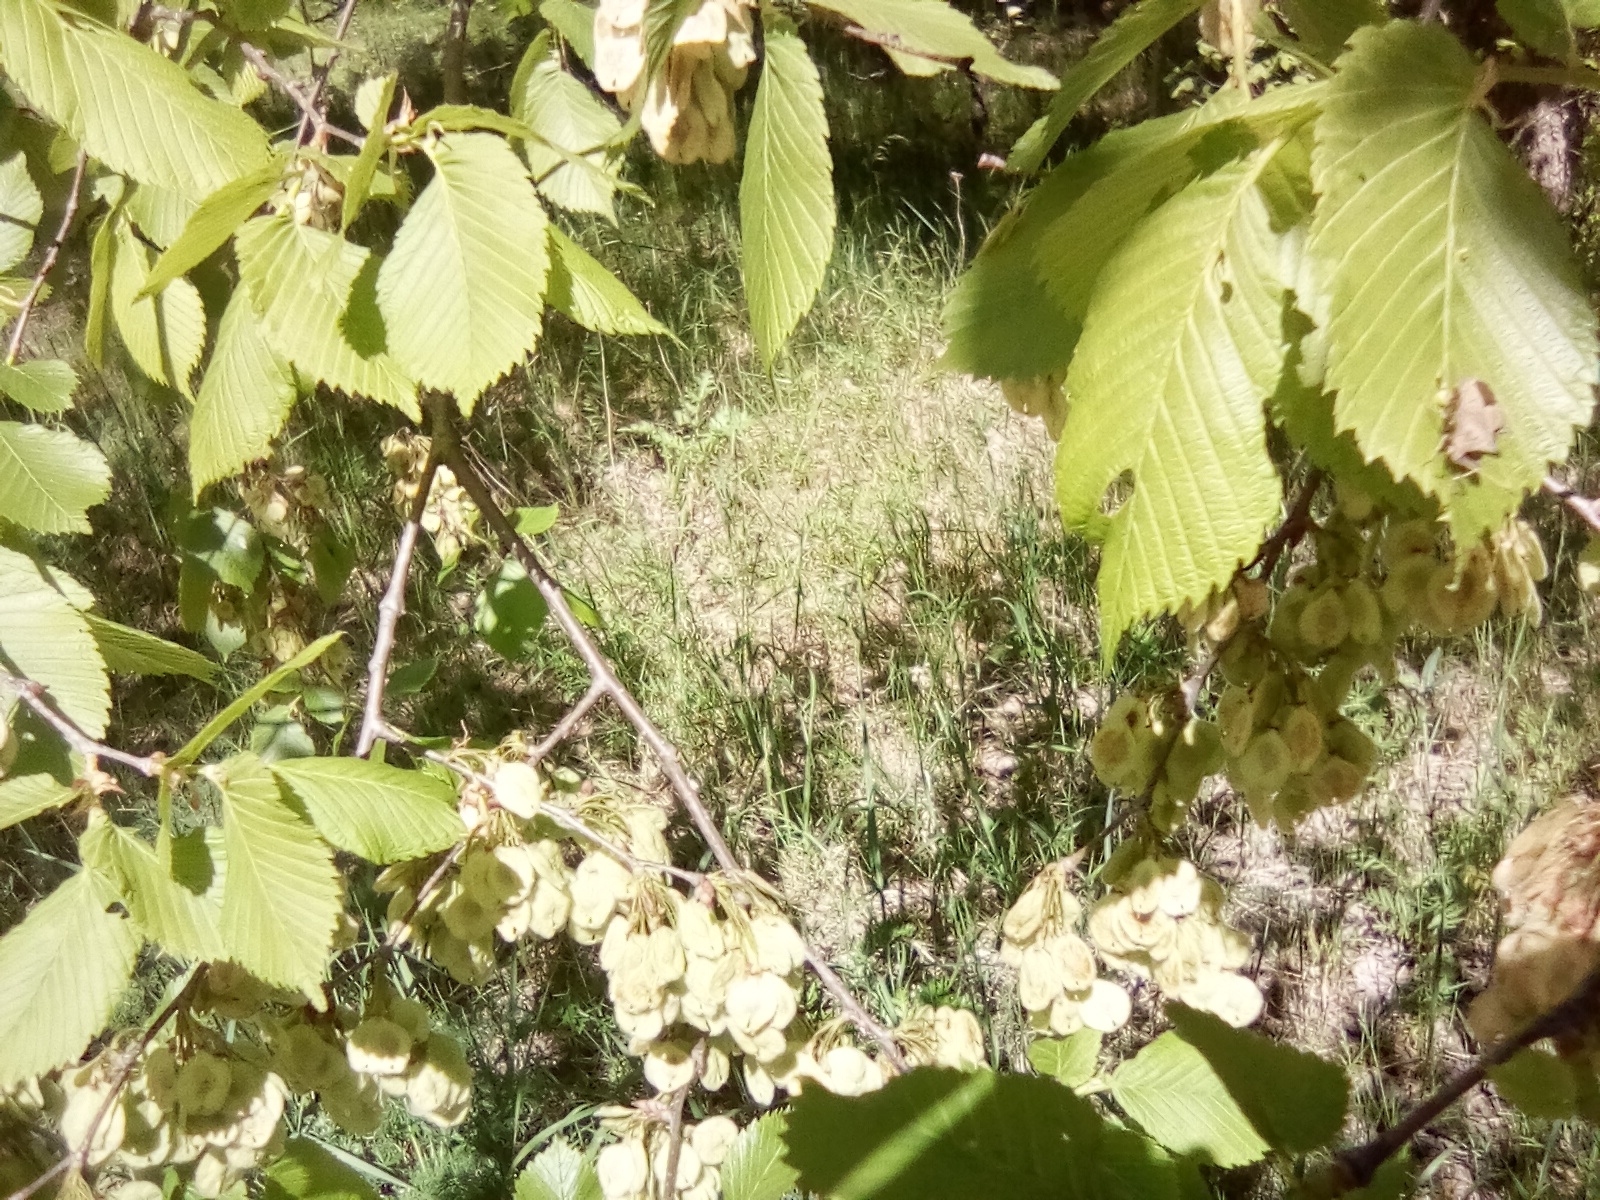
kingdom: Animalia
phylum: Arthropoda
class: Insecta
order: Hemiptera
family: Coreidae
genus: Coreus
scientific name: Coreus marginatus
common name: Dock bug
